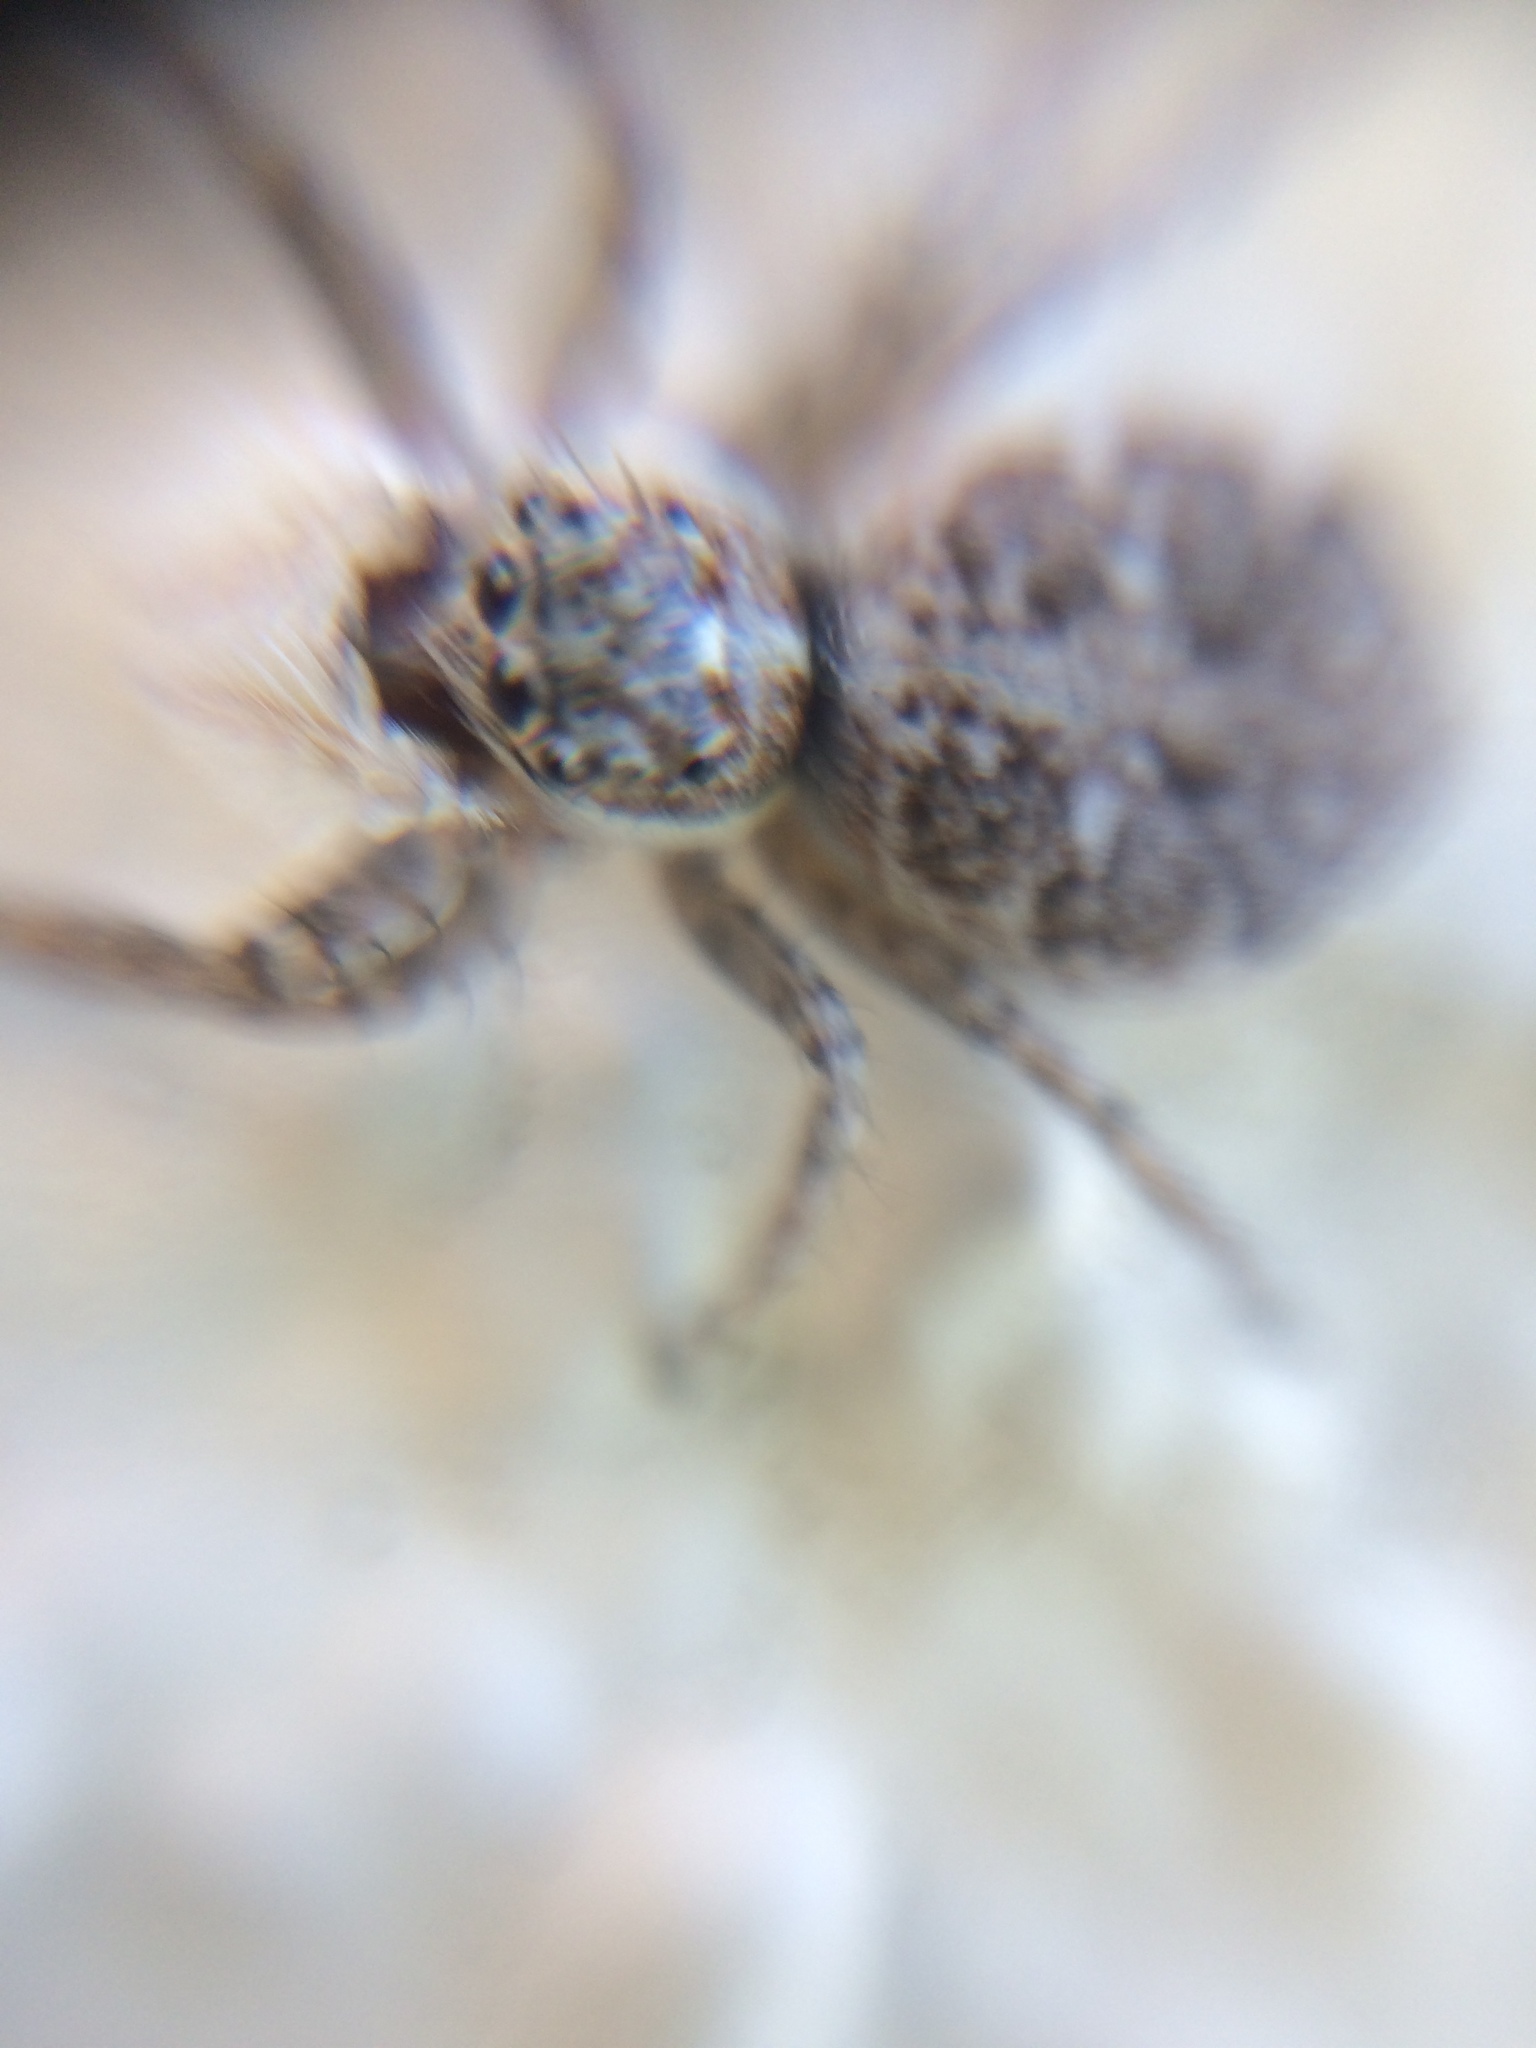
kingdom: Animalia
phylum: Arthropoda
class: Arachnida
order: Araneae
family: Salticidae
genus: Menemerus
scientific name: Menemerus semilimbatus
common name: Jumping spider
